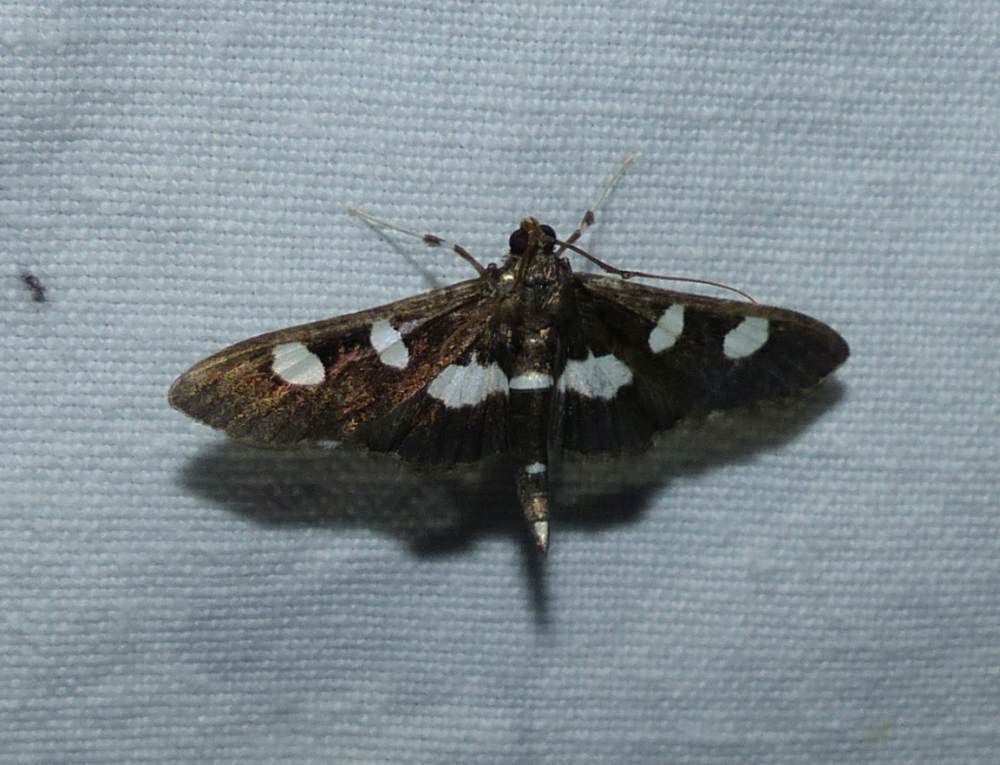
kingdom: Animalia
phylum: Arthropoda
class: Insecta
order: Lepidoptera
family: Crambidae
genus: Desmia
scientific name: Desmia
